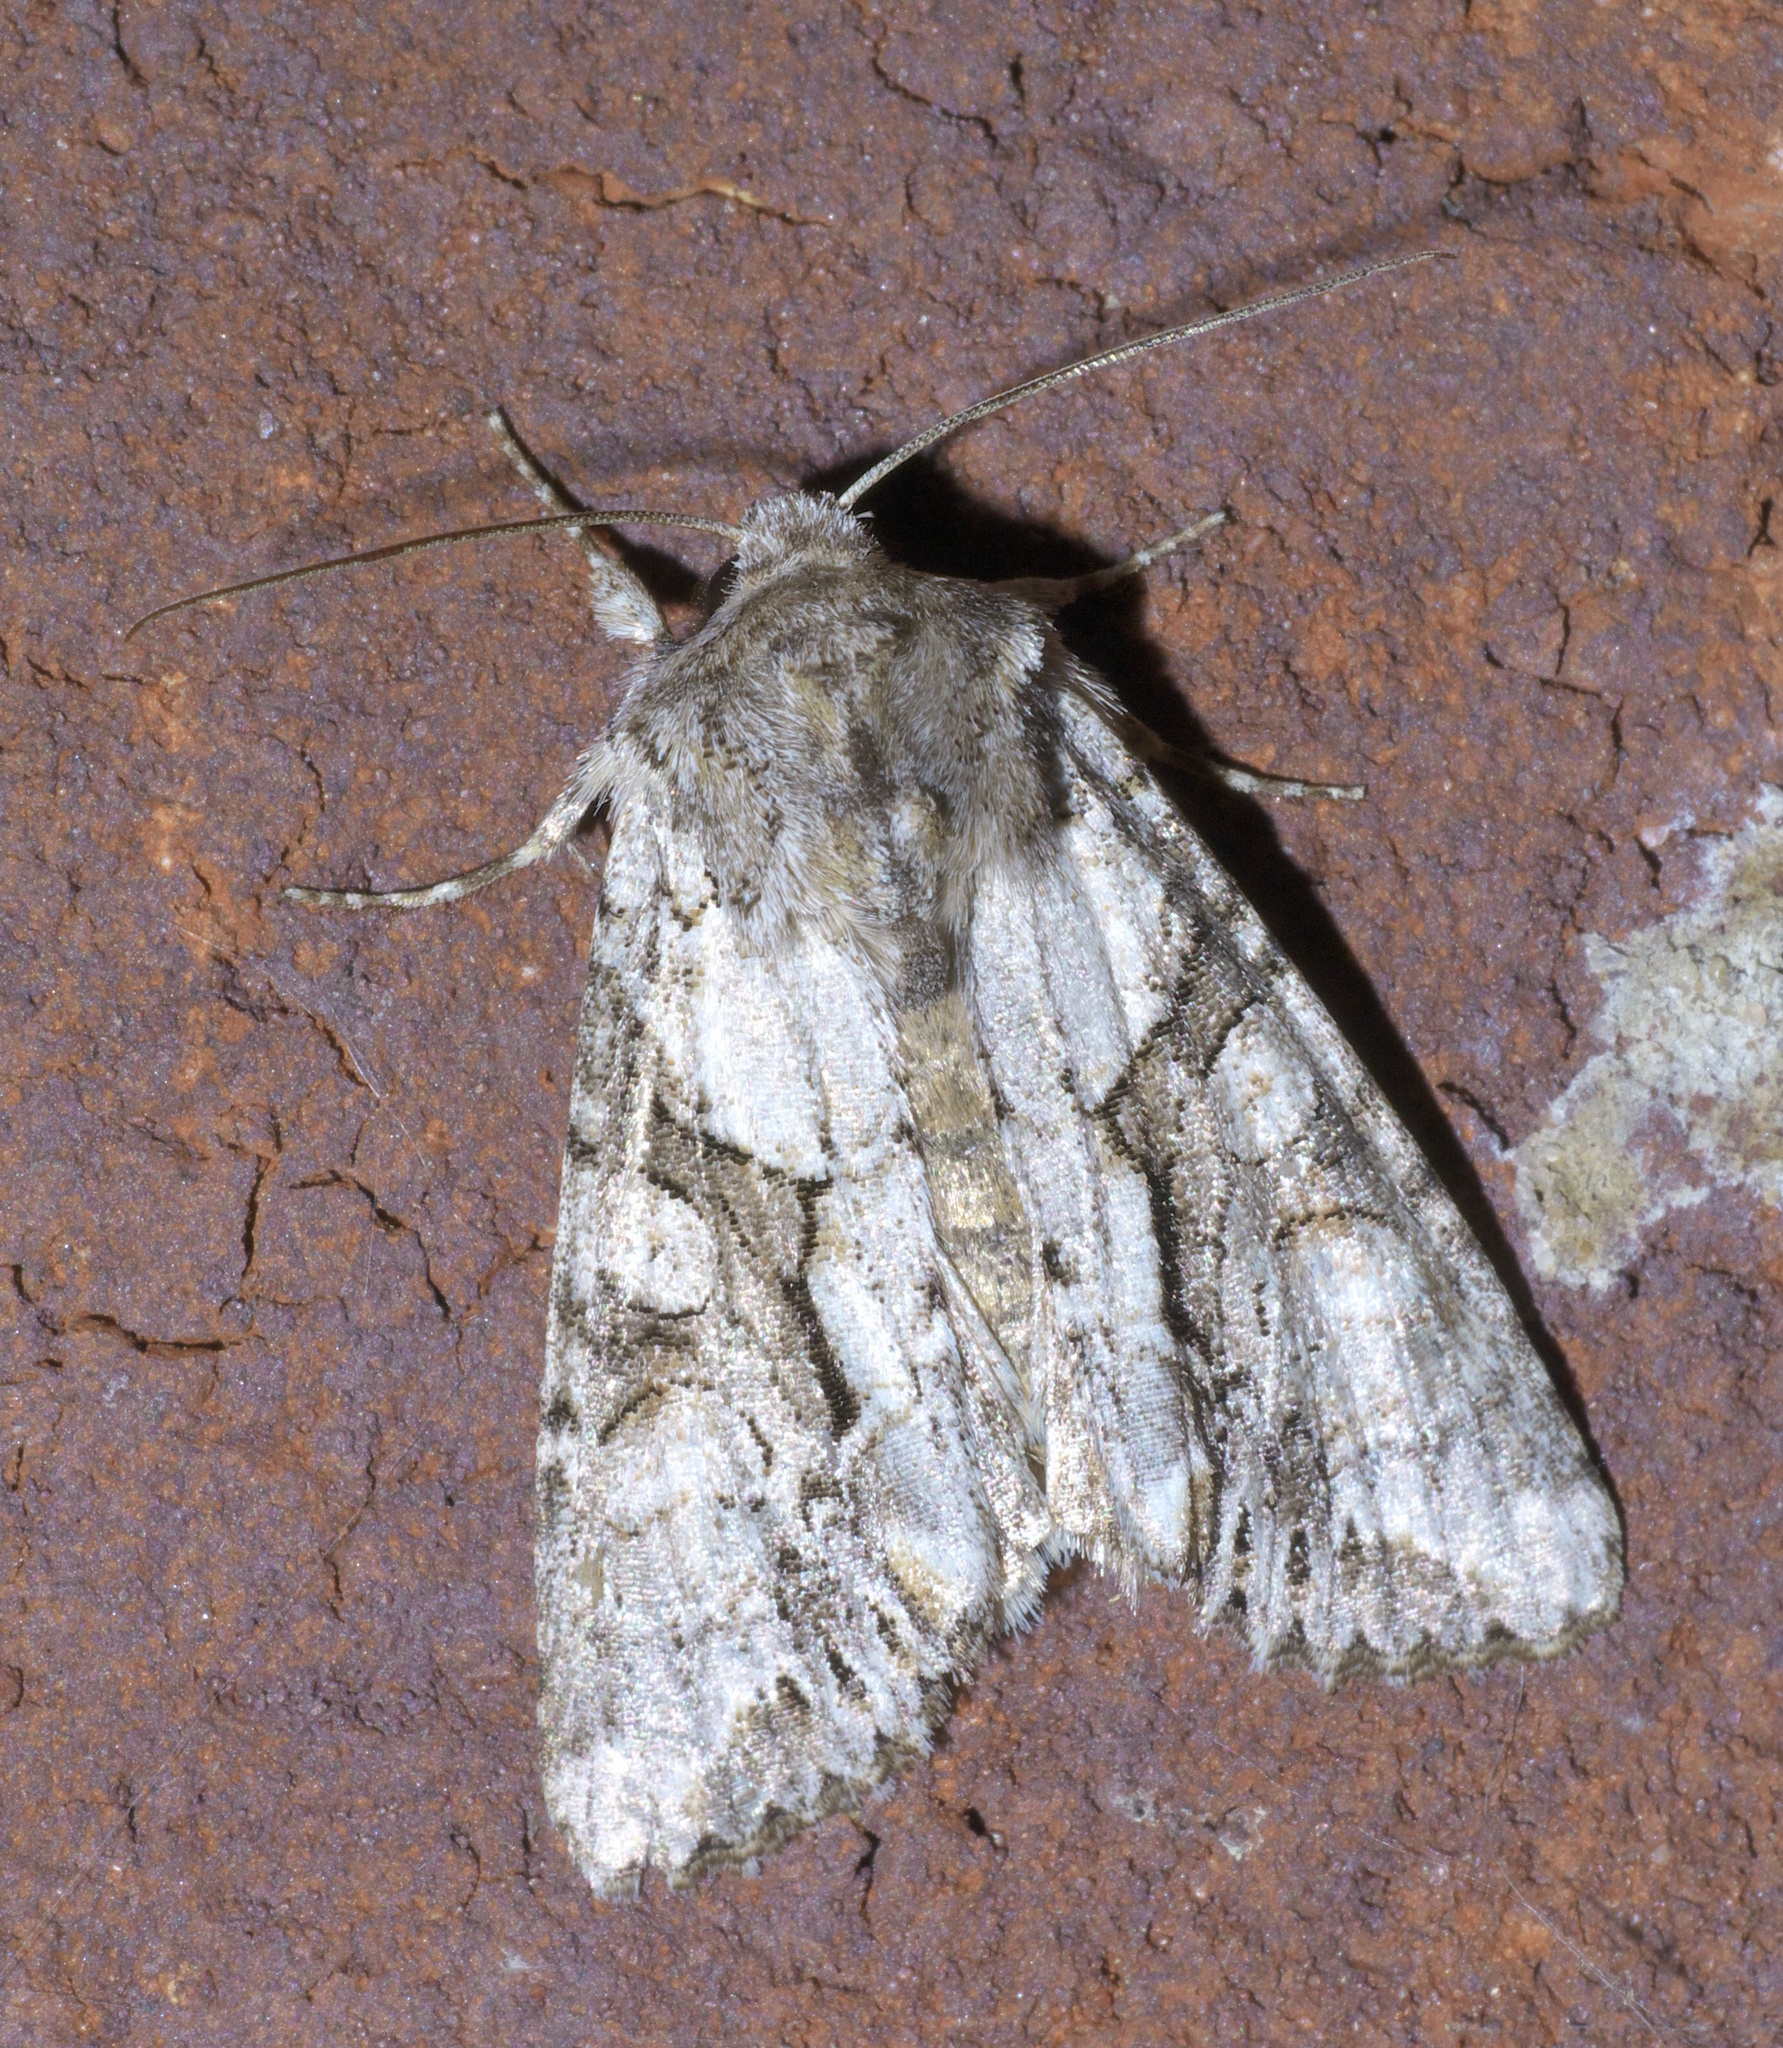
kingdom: Animalia
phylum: Arthropoda
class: Insecta
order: Lepidoptera
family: Noctuidae
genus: Achatia
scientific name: Achatia distincta
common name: Distinct quaker
